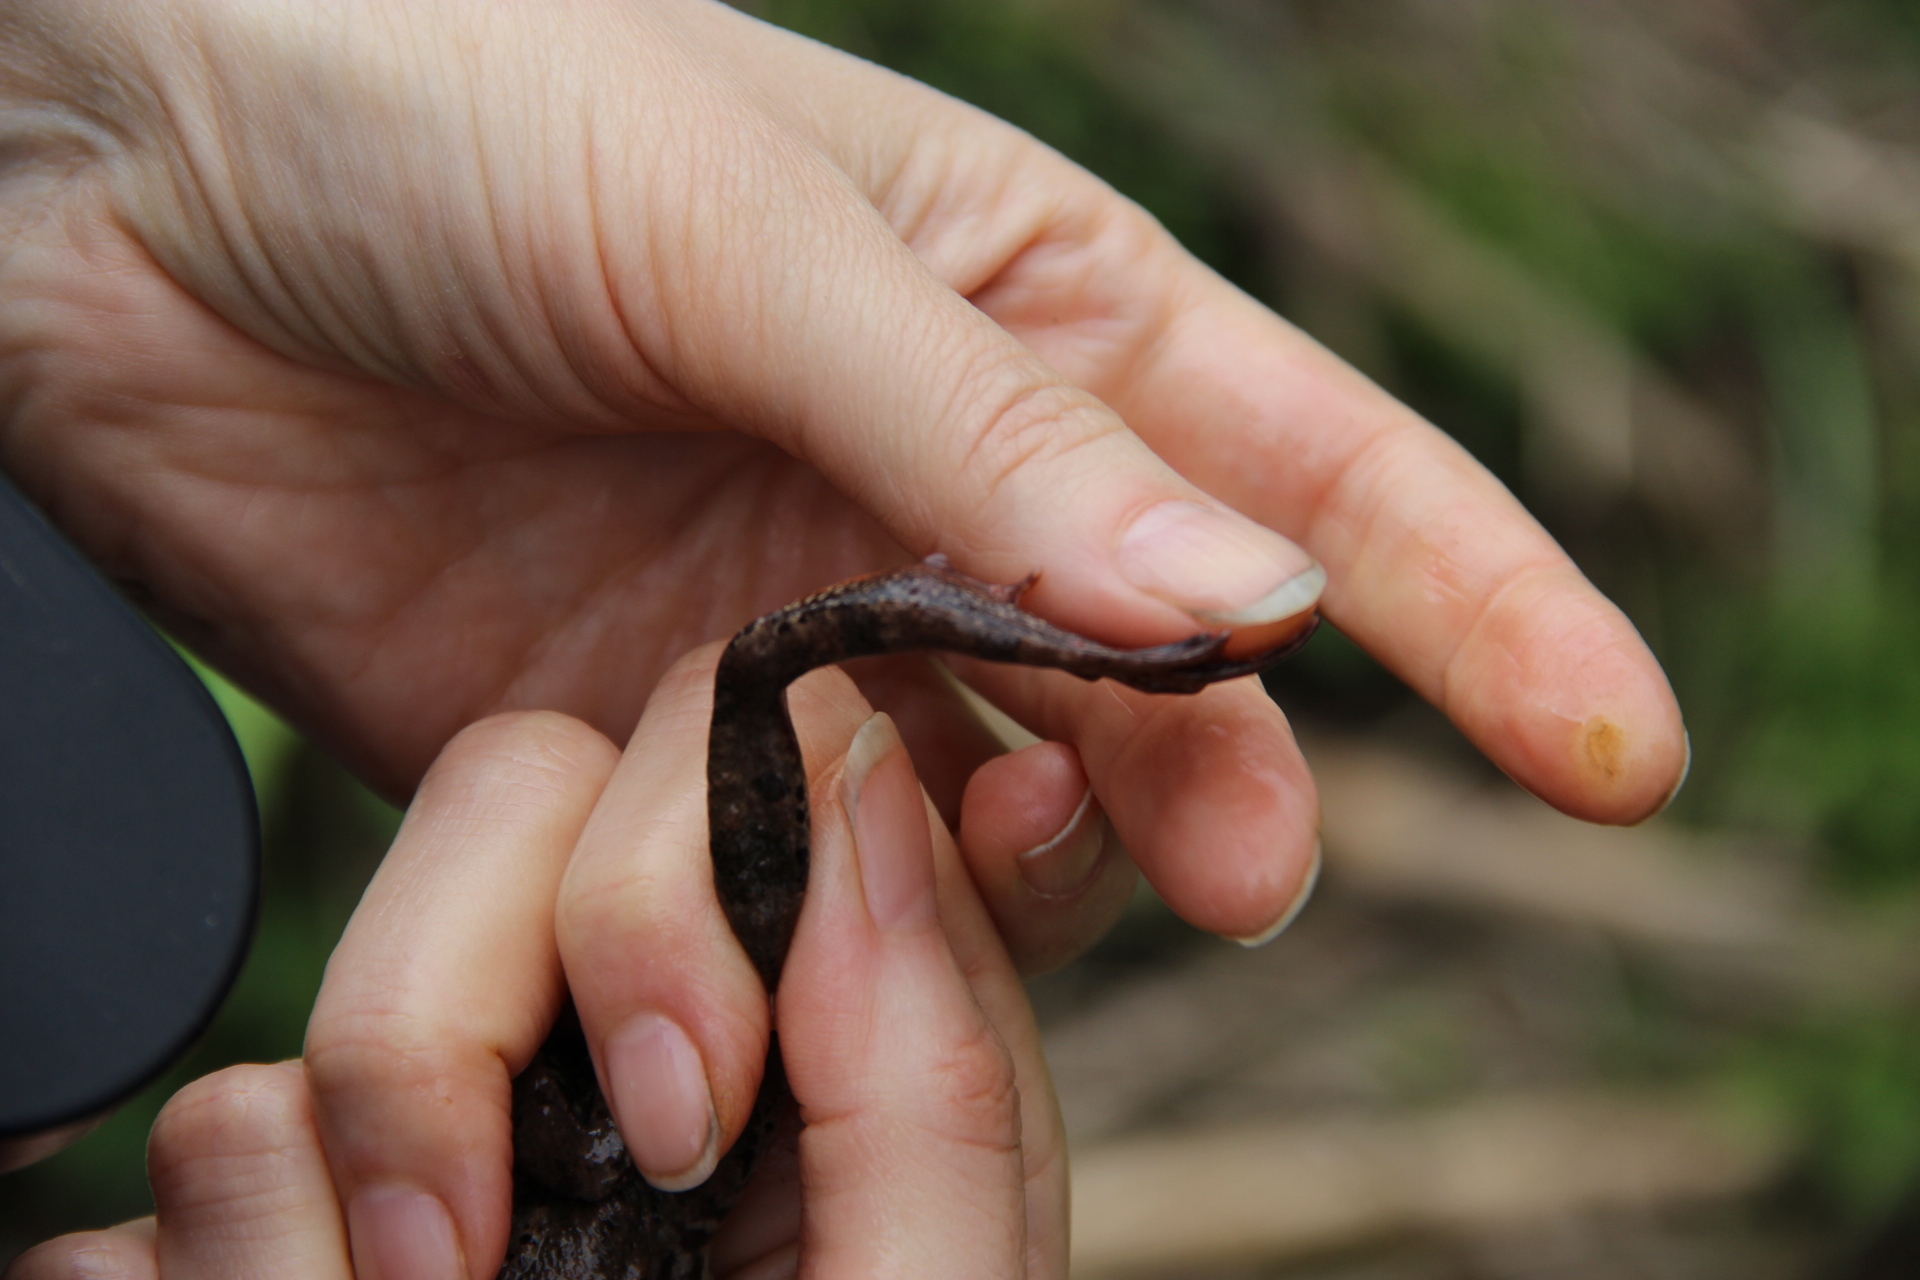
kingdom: Animalia
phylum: Chordata
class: Amphibia
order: Anura
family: Ranidae
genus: Rana
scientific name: Rana temporaria
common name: Common frog
